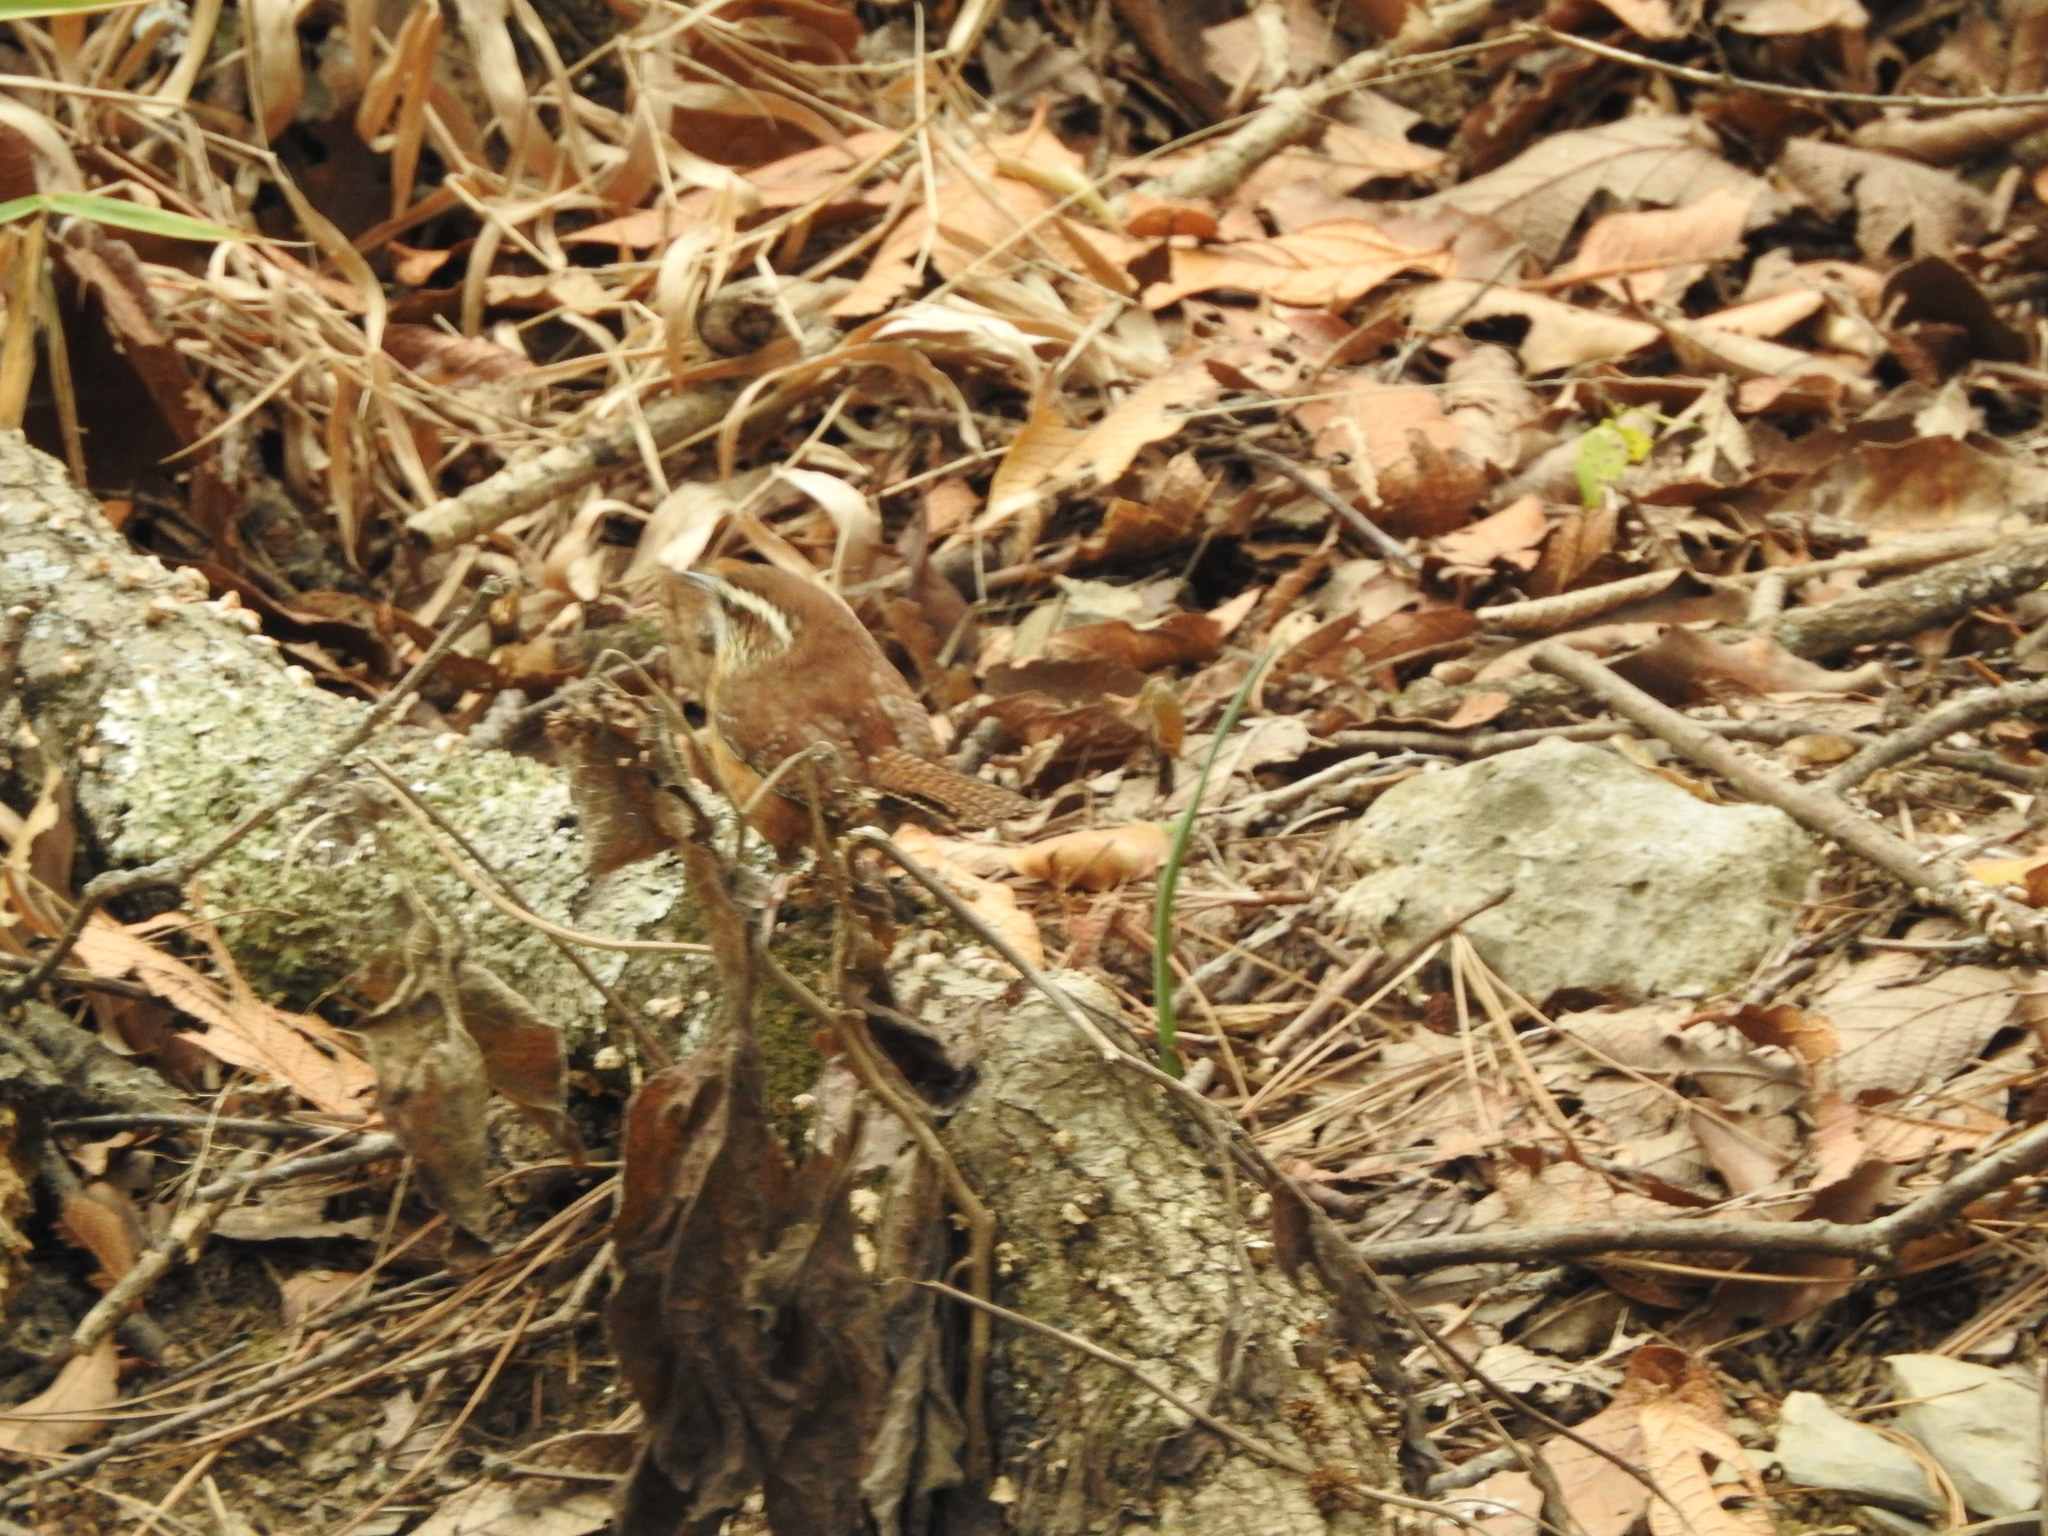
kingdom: Animalia
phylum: Chordata
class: Aves
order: Passeriformes
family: Troglodytidae
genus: Thryothorus
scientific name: Thryothorus ludovicianus
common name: Carolina wren
